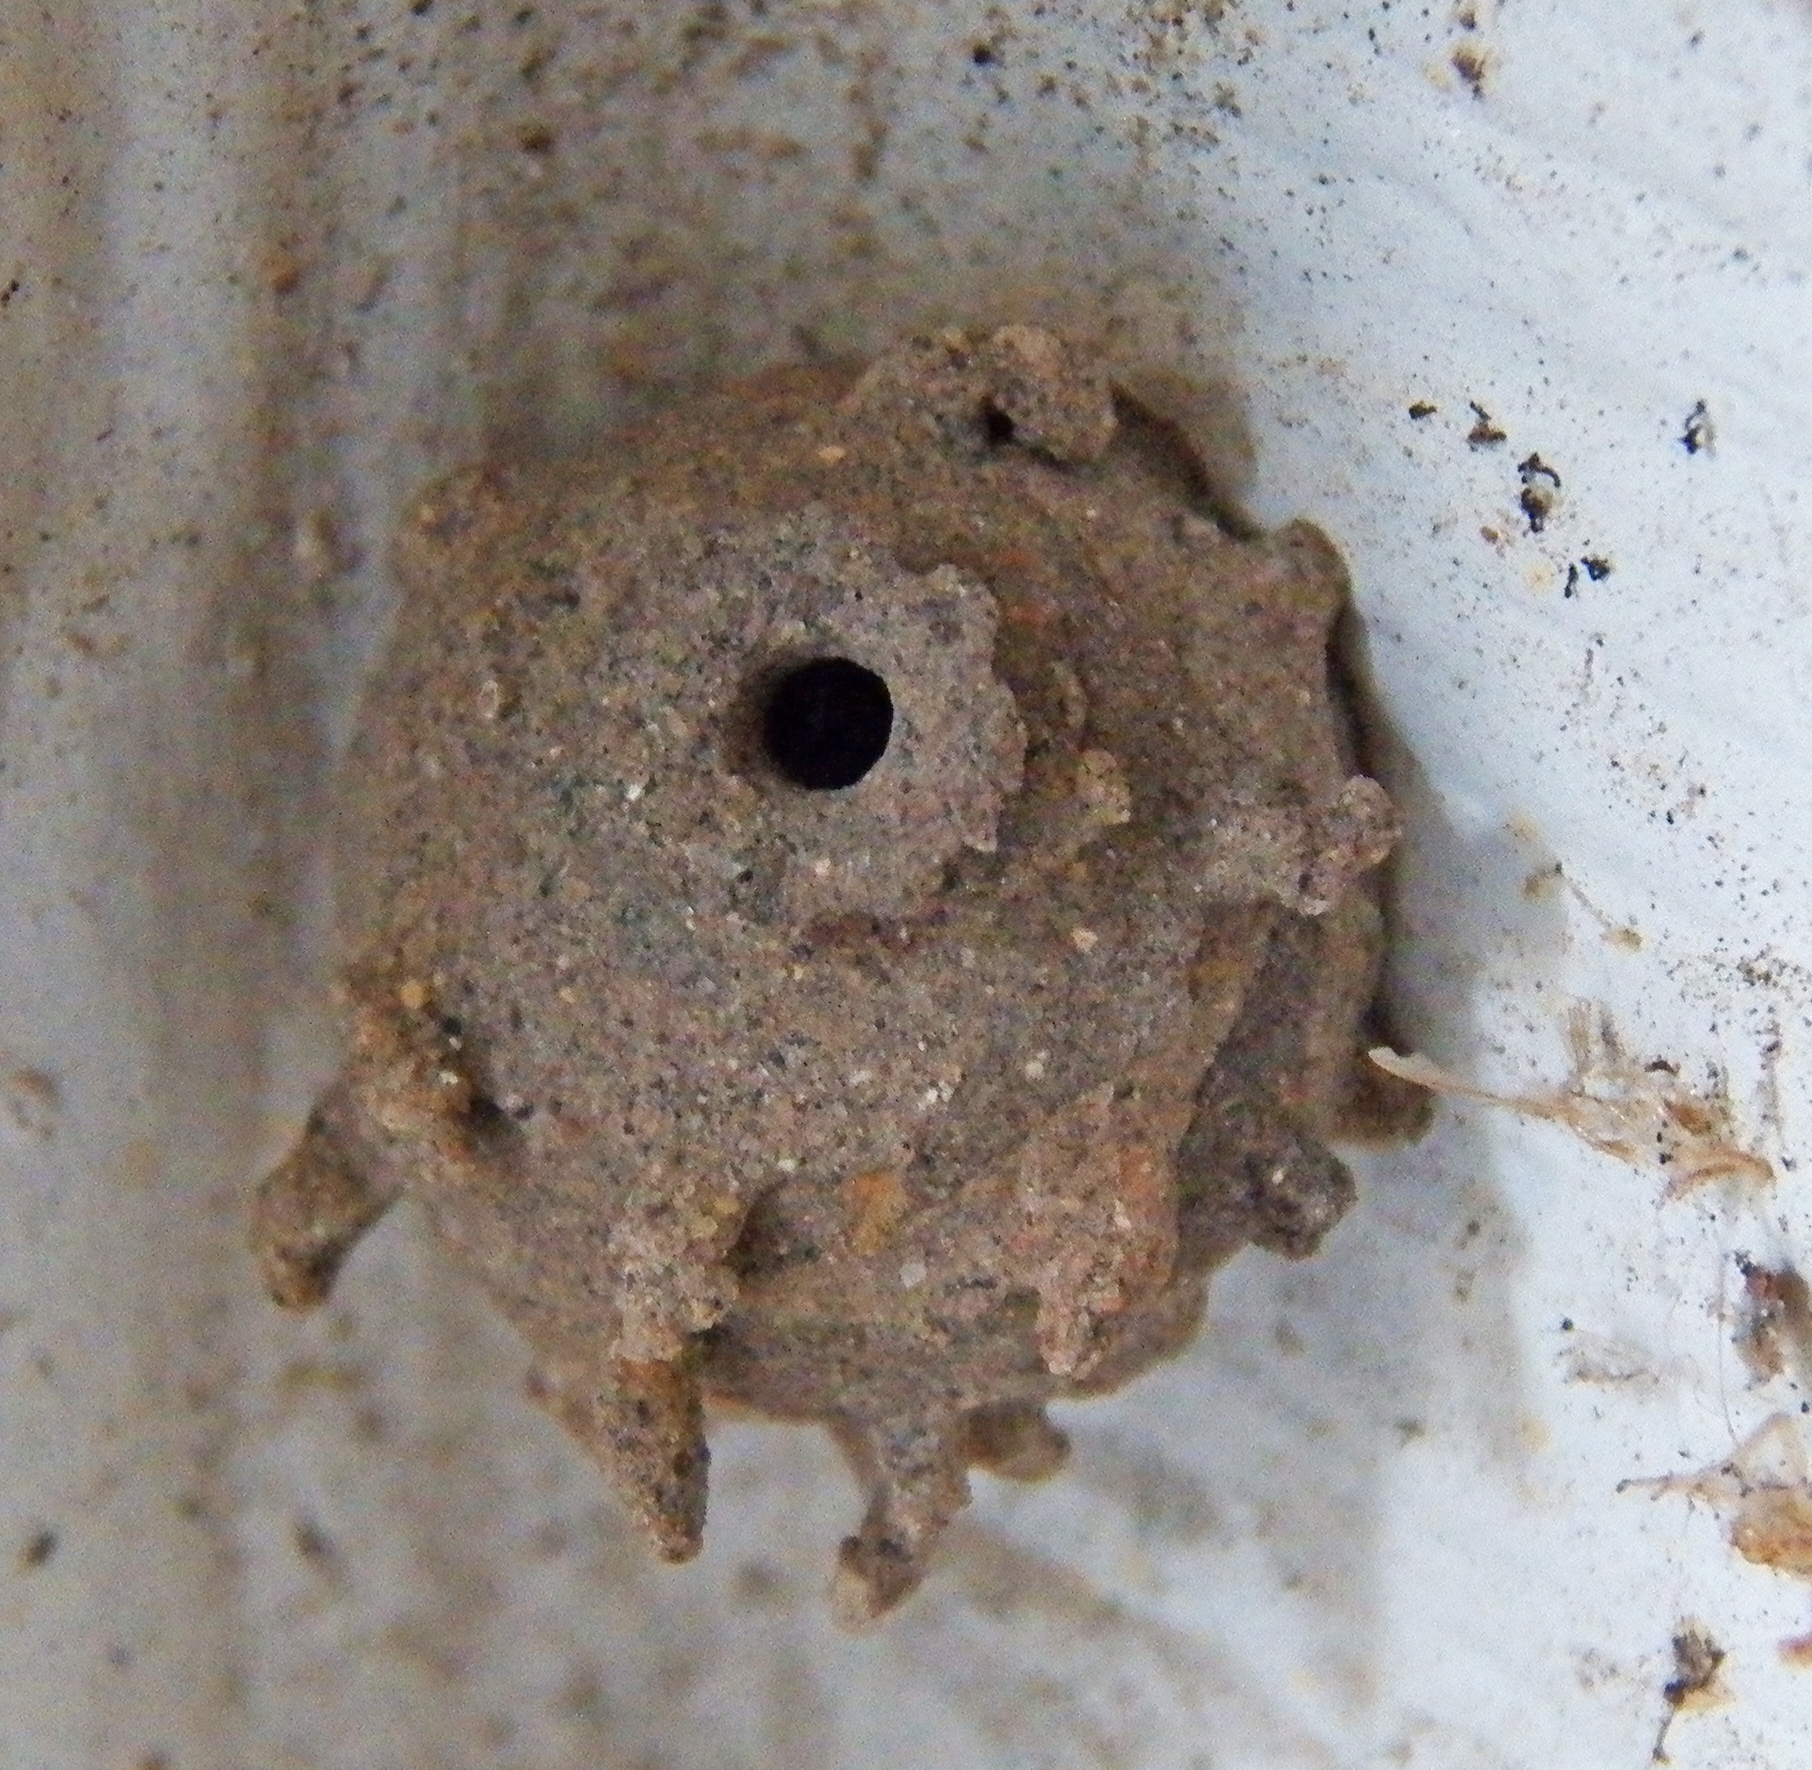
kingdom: Animalia
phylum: Arthropoda
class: Insecta
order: Hymenoptera
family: Vespidae
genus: Eumenes
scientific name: Eumenes
